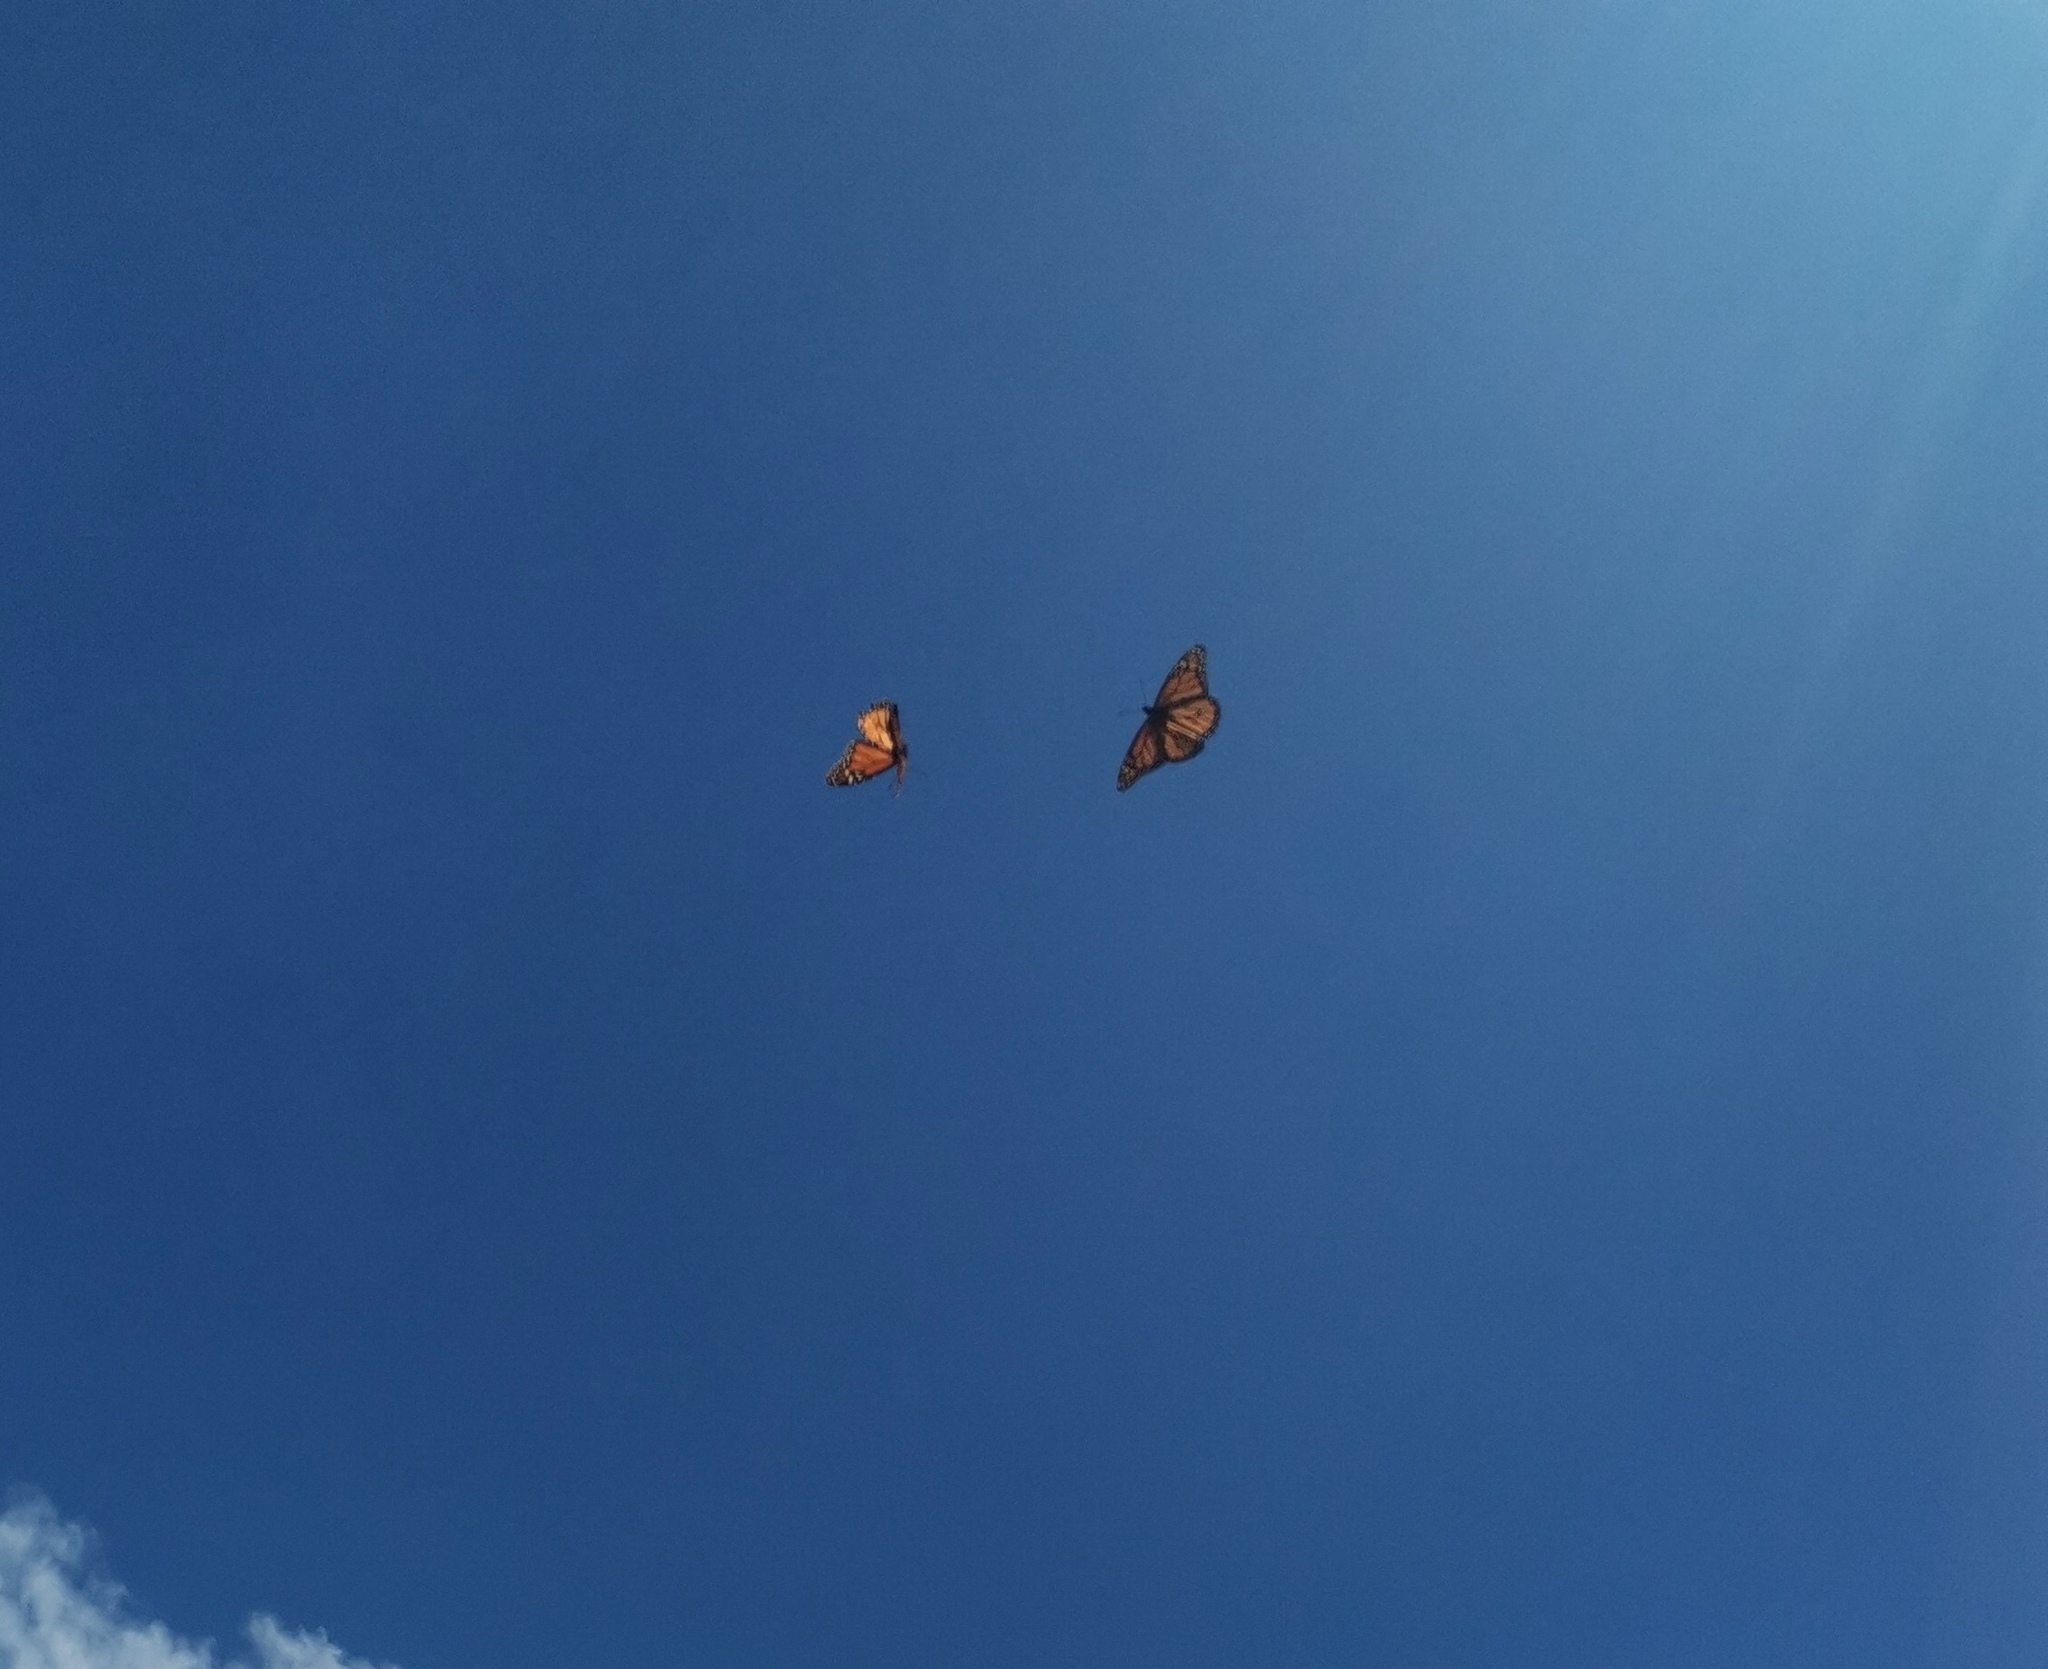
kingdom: Animalia
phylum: Arthropoda
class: Insecta
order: Lepidoptera
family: Nymphalidae
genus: Danaus
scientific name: Danaus plexippus
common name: Monarch
